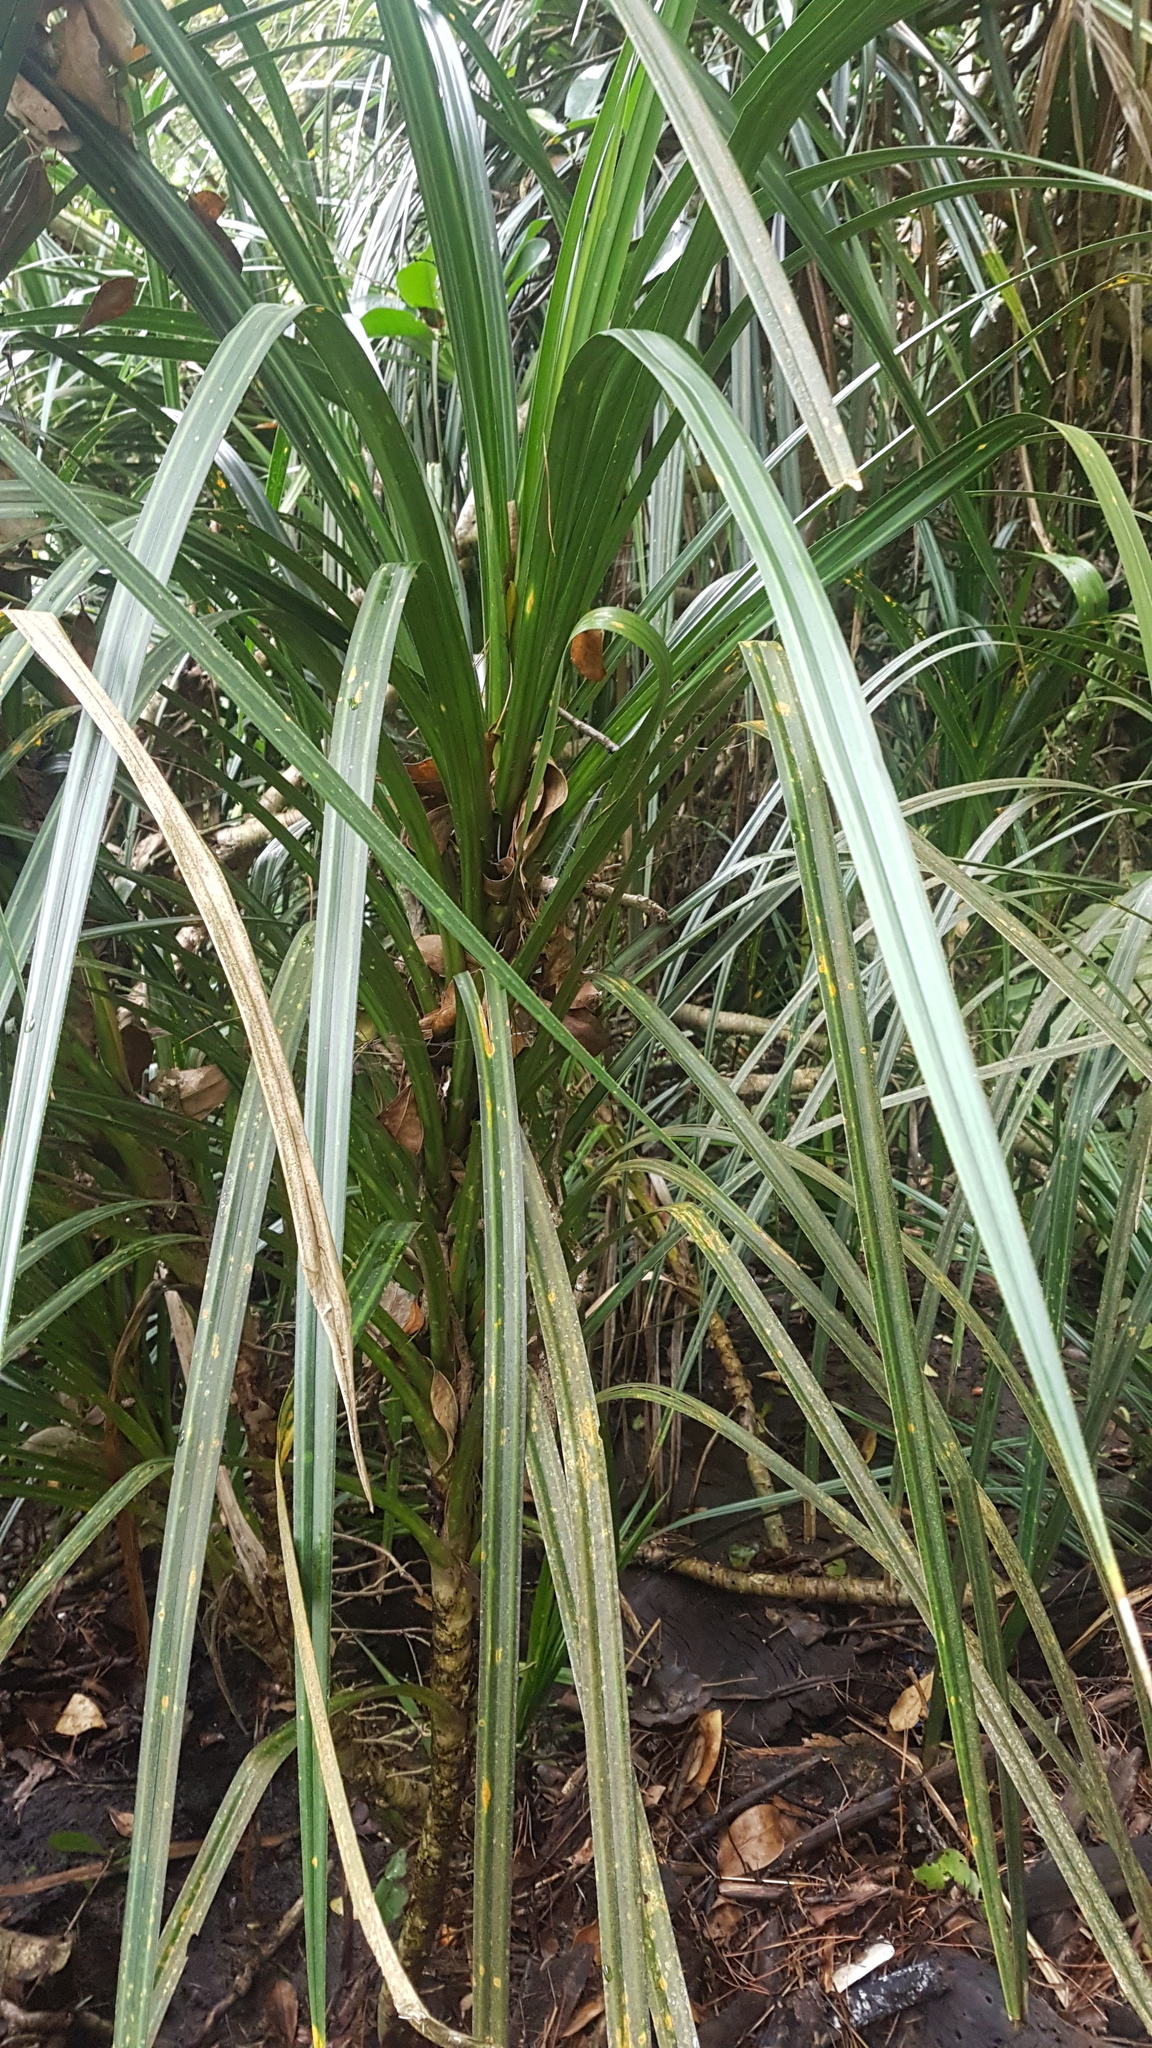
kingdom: Plantae
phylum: Tracheophyta
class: Liliopsida
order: Pandanales
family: Pandanaceae
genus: Freycinetia
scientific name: Freycinetia banksii
